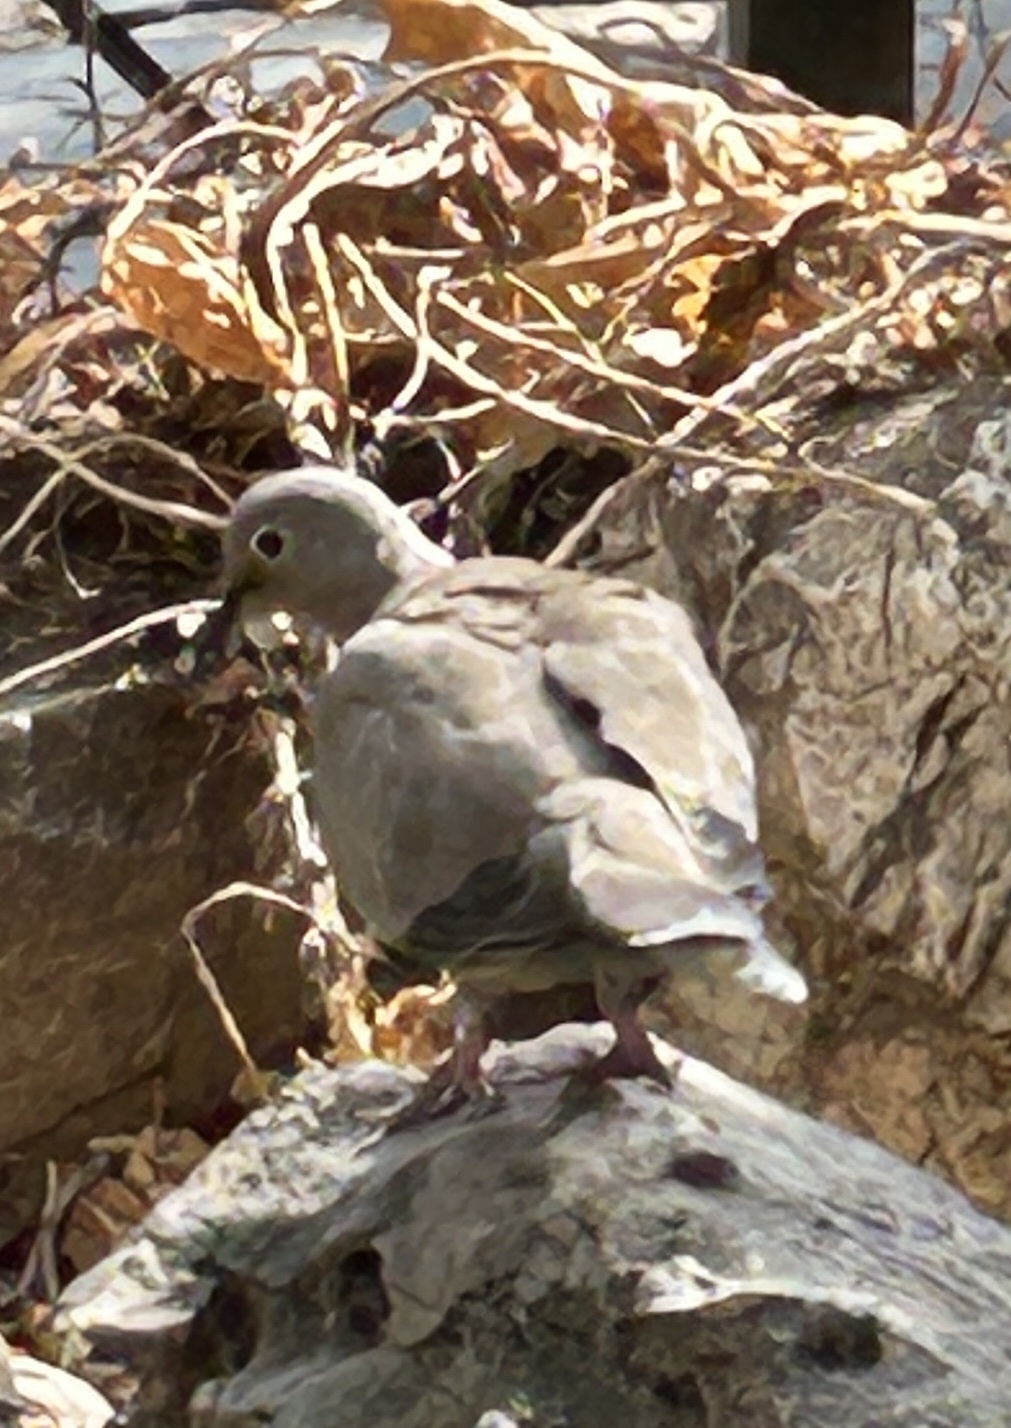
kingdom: Animalia
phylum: Chordata
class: Aves
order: Columbiformes
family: Columbidae
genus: Streptopelia
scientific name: Streptopelia decaocto
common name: Eurasian collared dove
